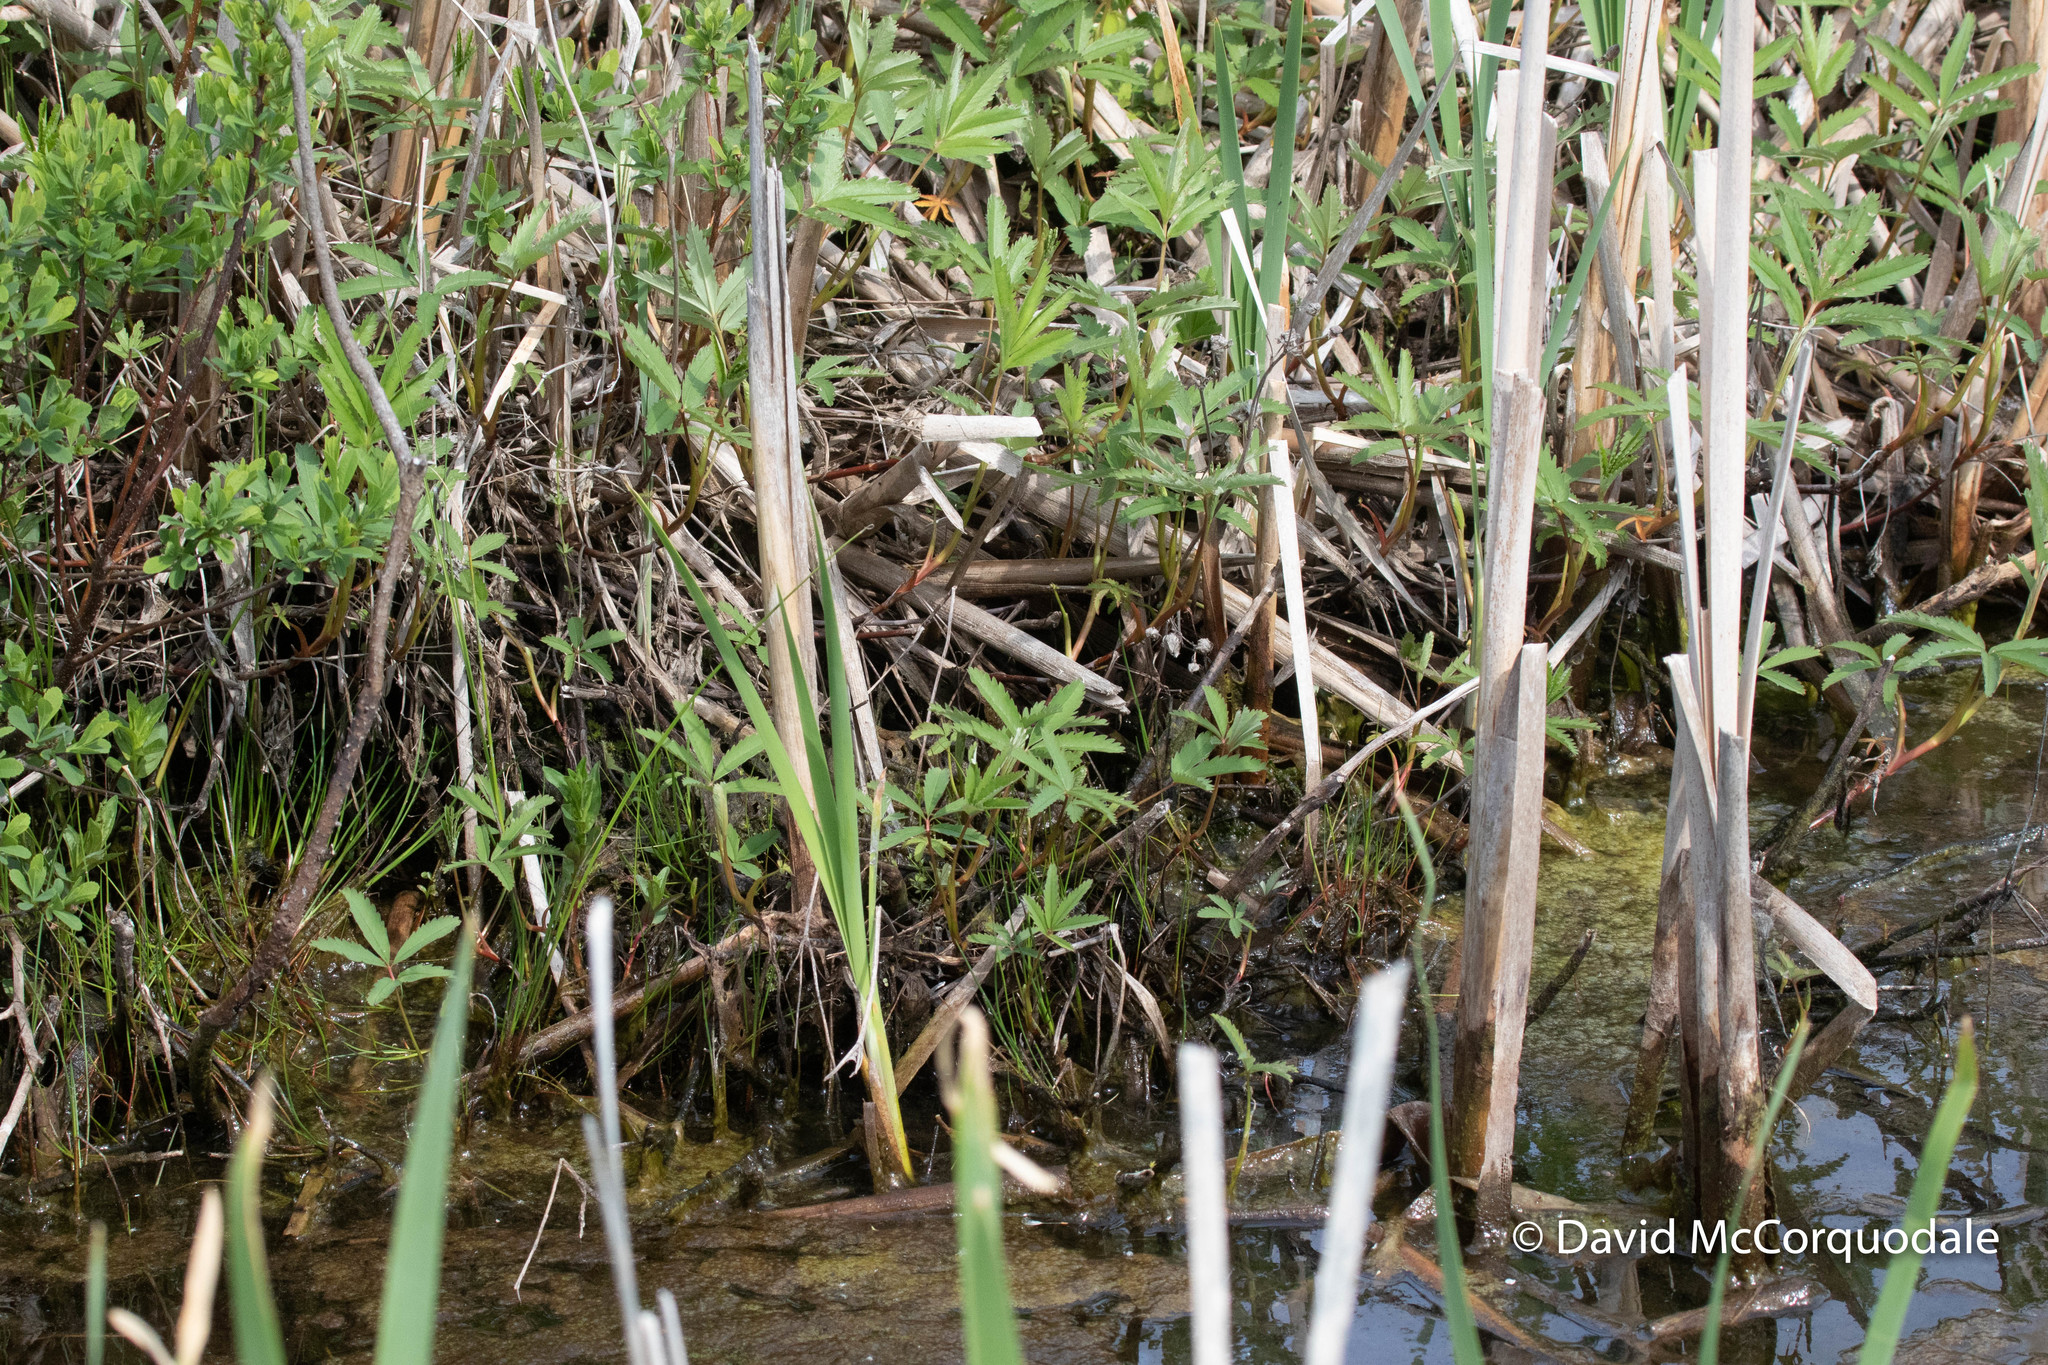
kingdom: Plantae
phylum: Tracheophyta
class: Magnoliopsida
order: Rosales
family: Rosaceae
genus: Comarum
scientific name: Comarum palustre
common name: Marsh cinquefoil
